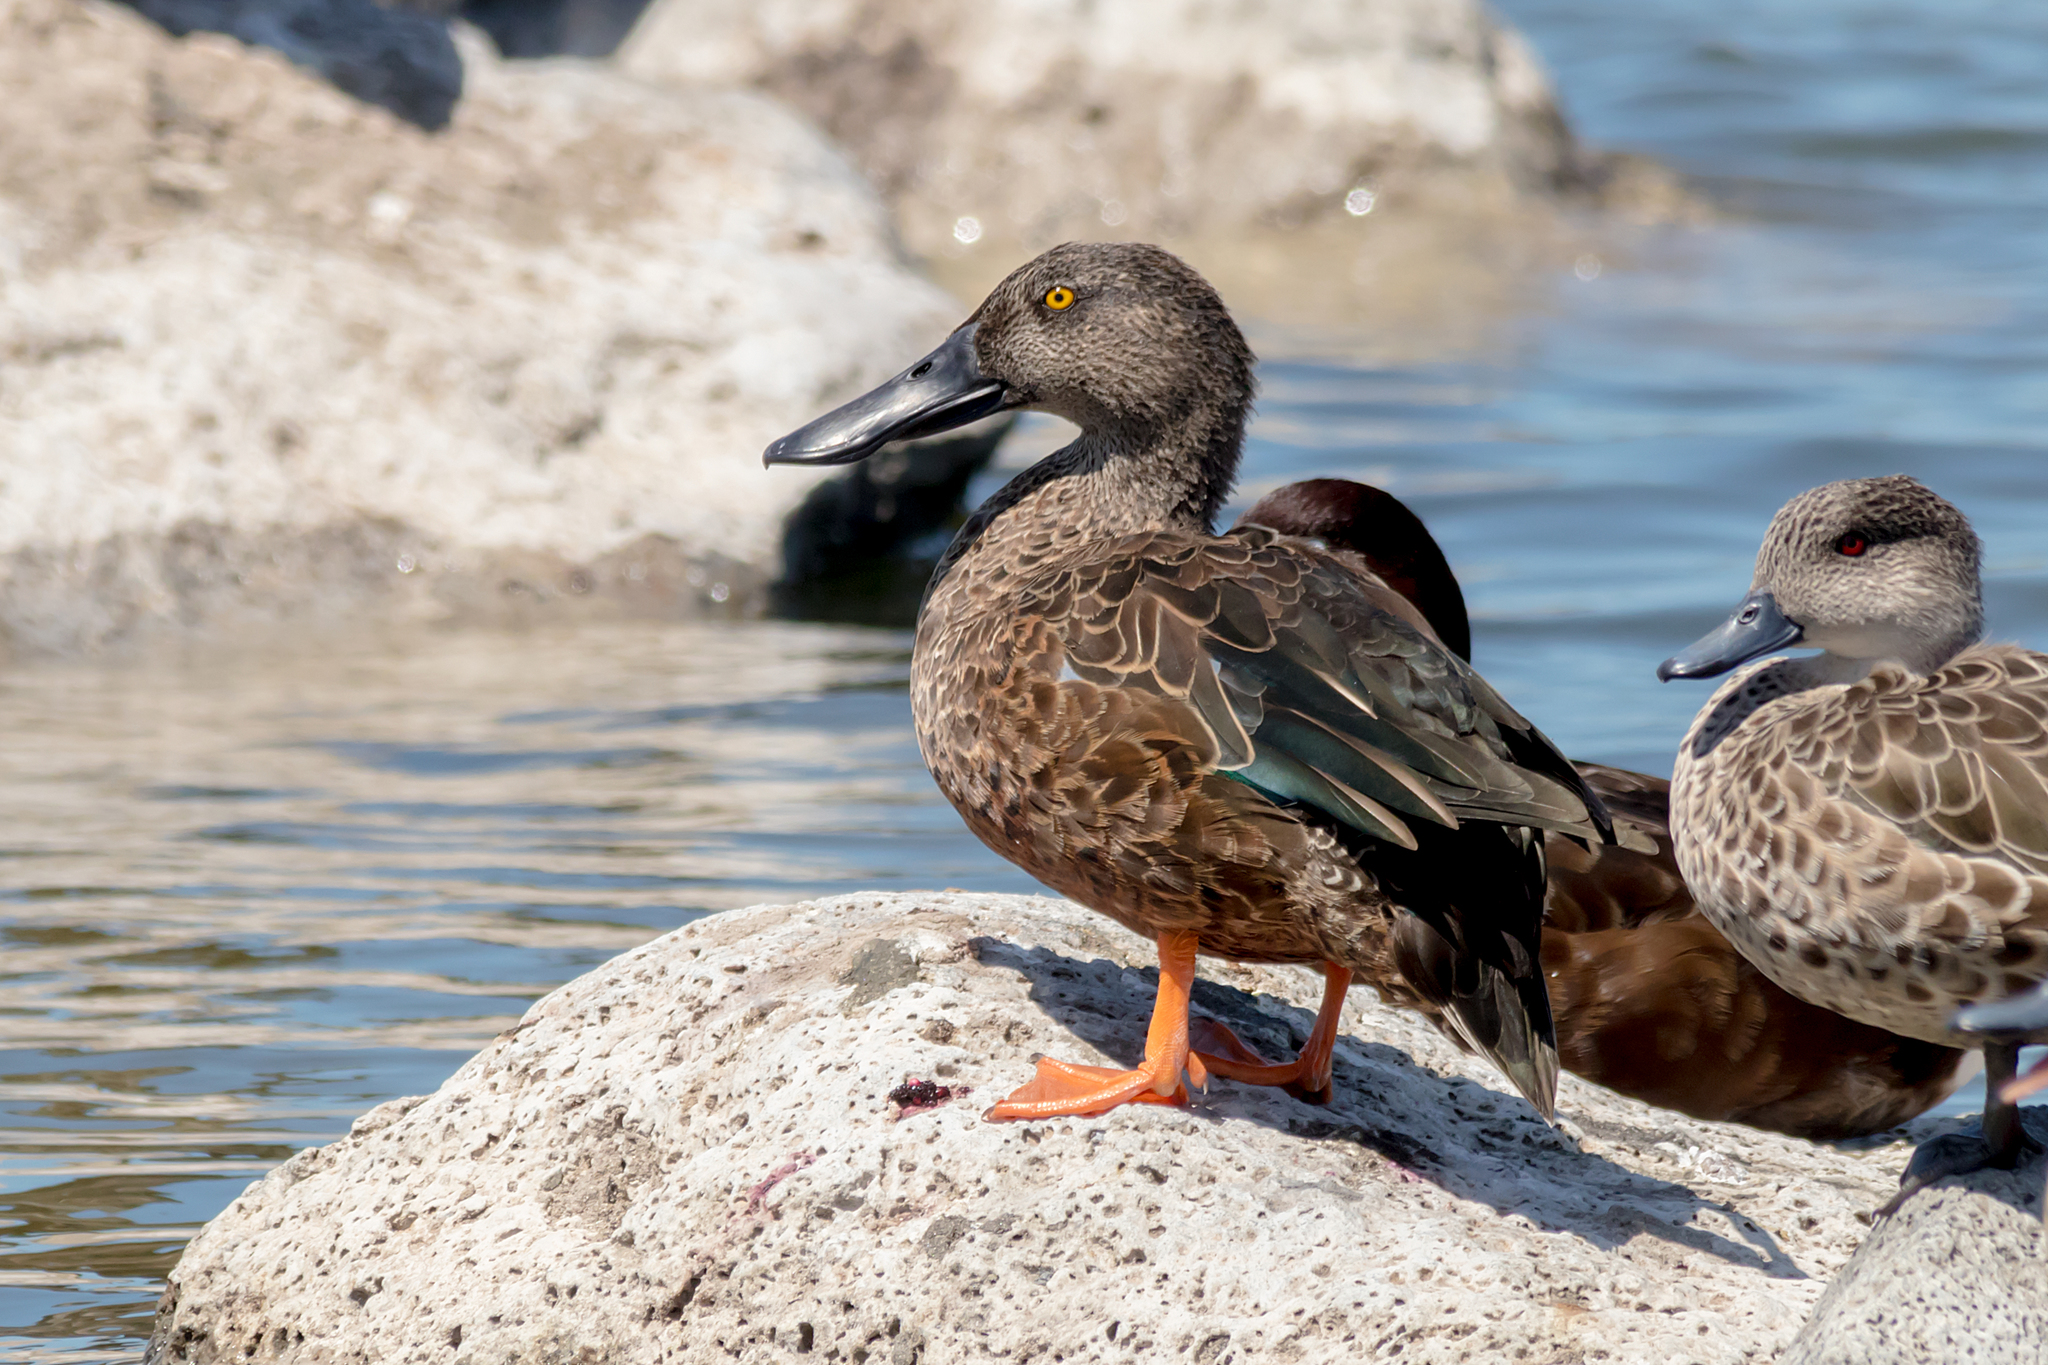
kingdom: Animalia
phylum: Chordata
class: Aves
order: Anseriformes
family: Anatidae
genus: Spatula
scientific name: Spatula rhynchotis
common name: Australian shoveler
